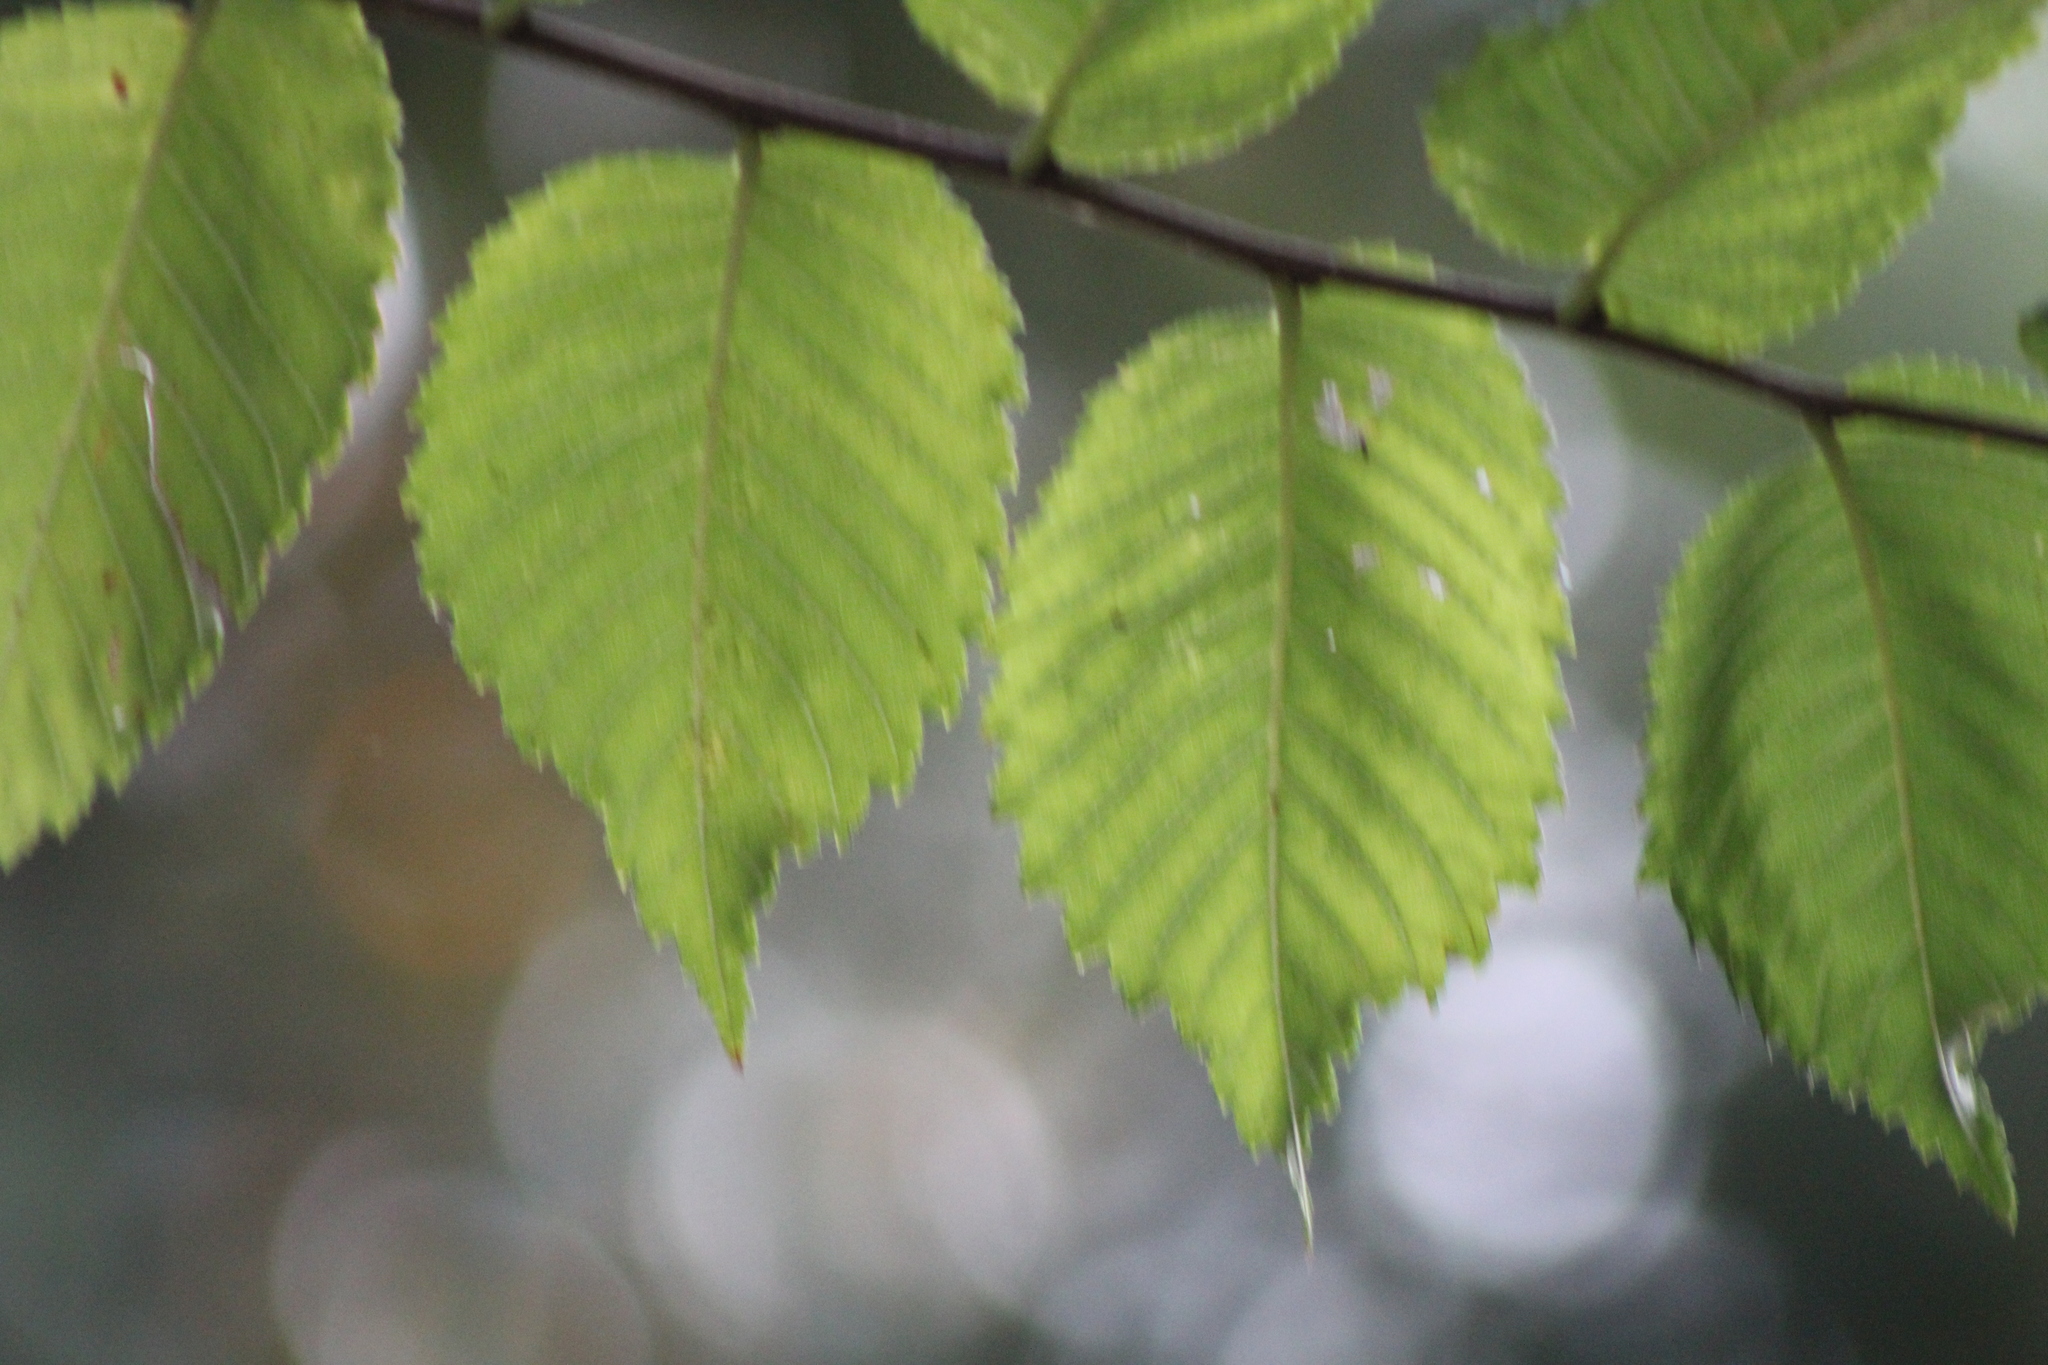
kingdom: Plantae
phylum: Tracheophyta
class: Magnoliopsida
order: Rosales
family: Ulmaceae
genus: Ulmus
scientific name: Ulmus americana
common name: American elm
